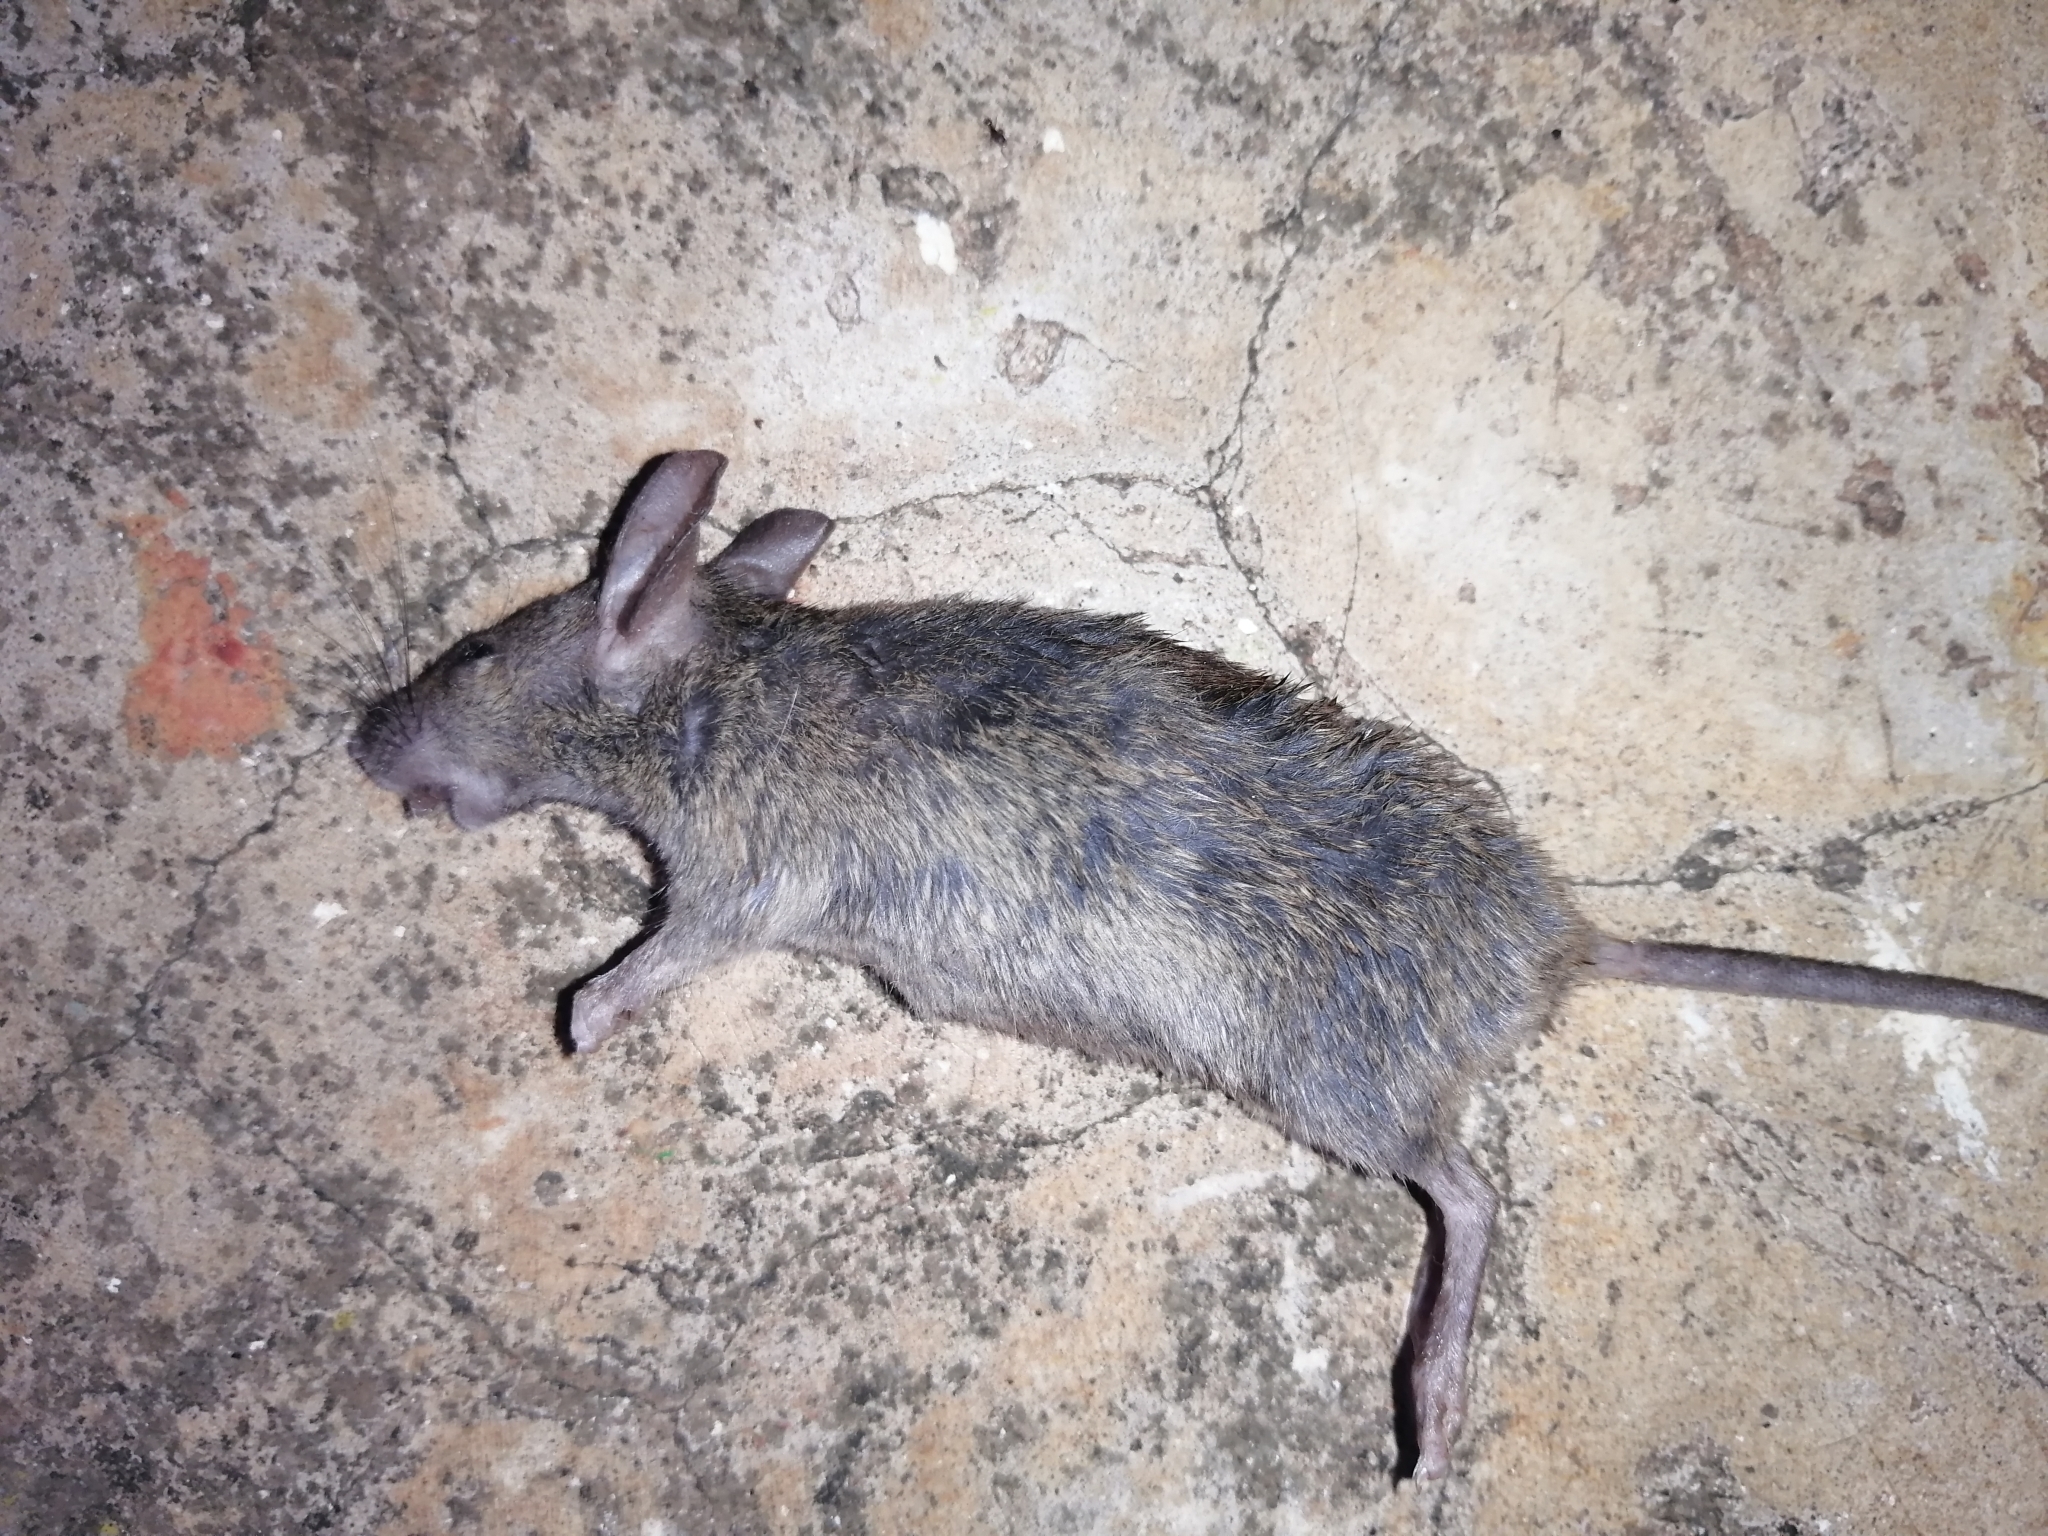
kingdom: Animalia
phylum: Chordata
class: Mammalia
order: Rodentia
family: Muridae
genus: Mus
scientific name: Mus musculus
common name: House mouse
